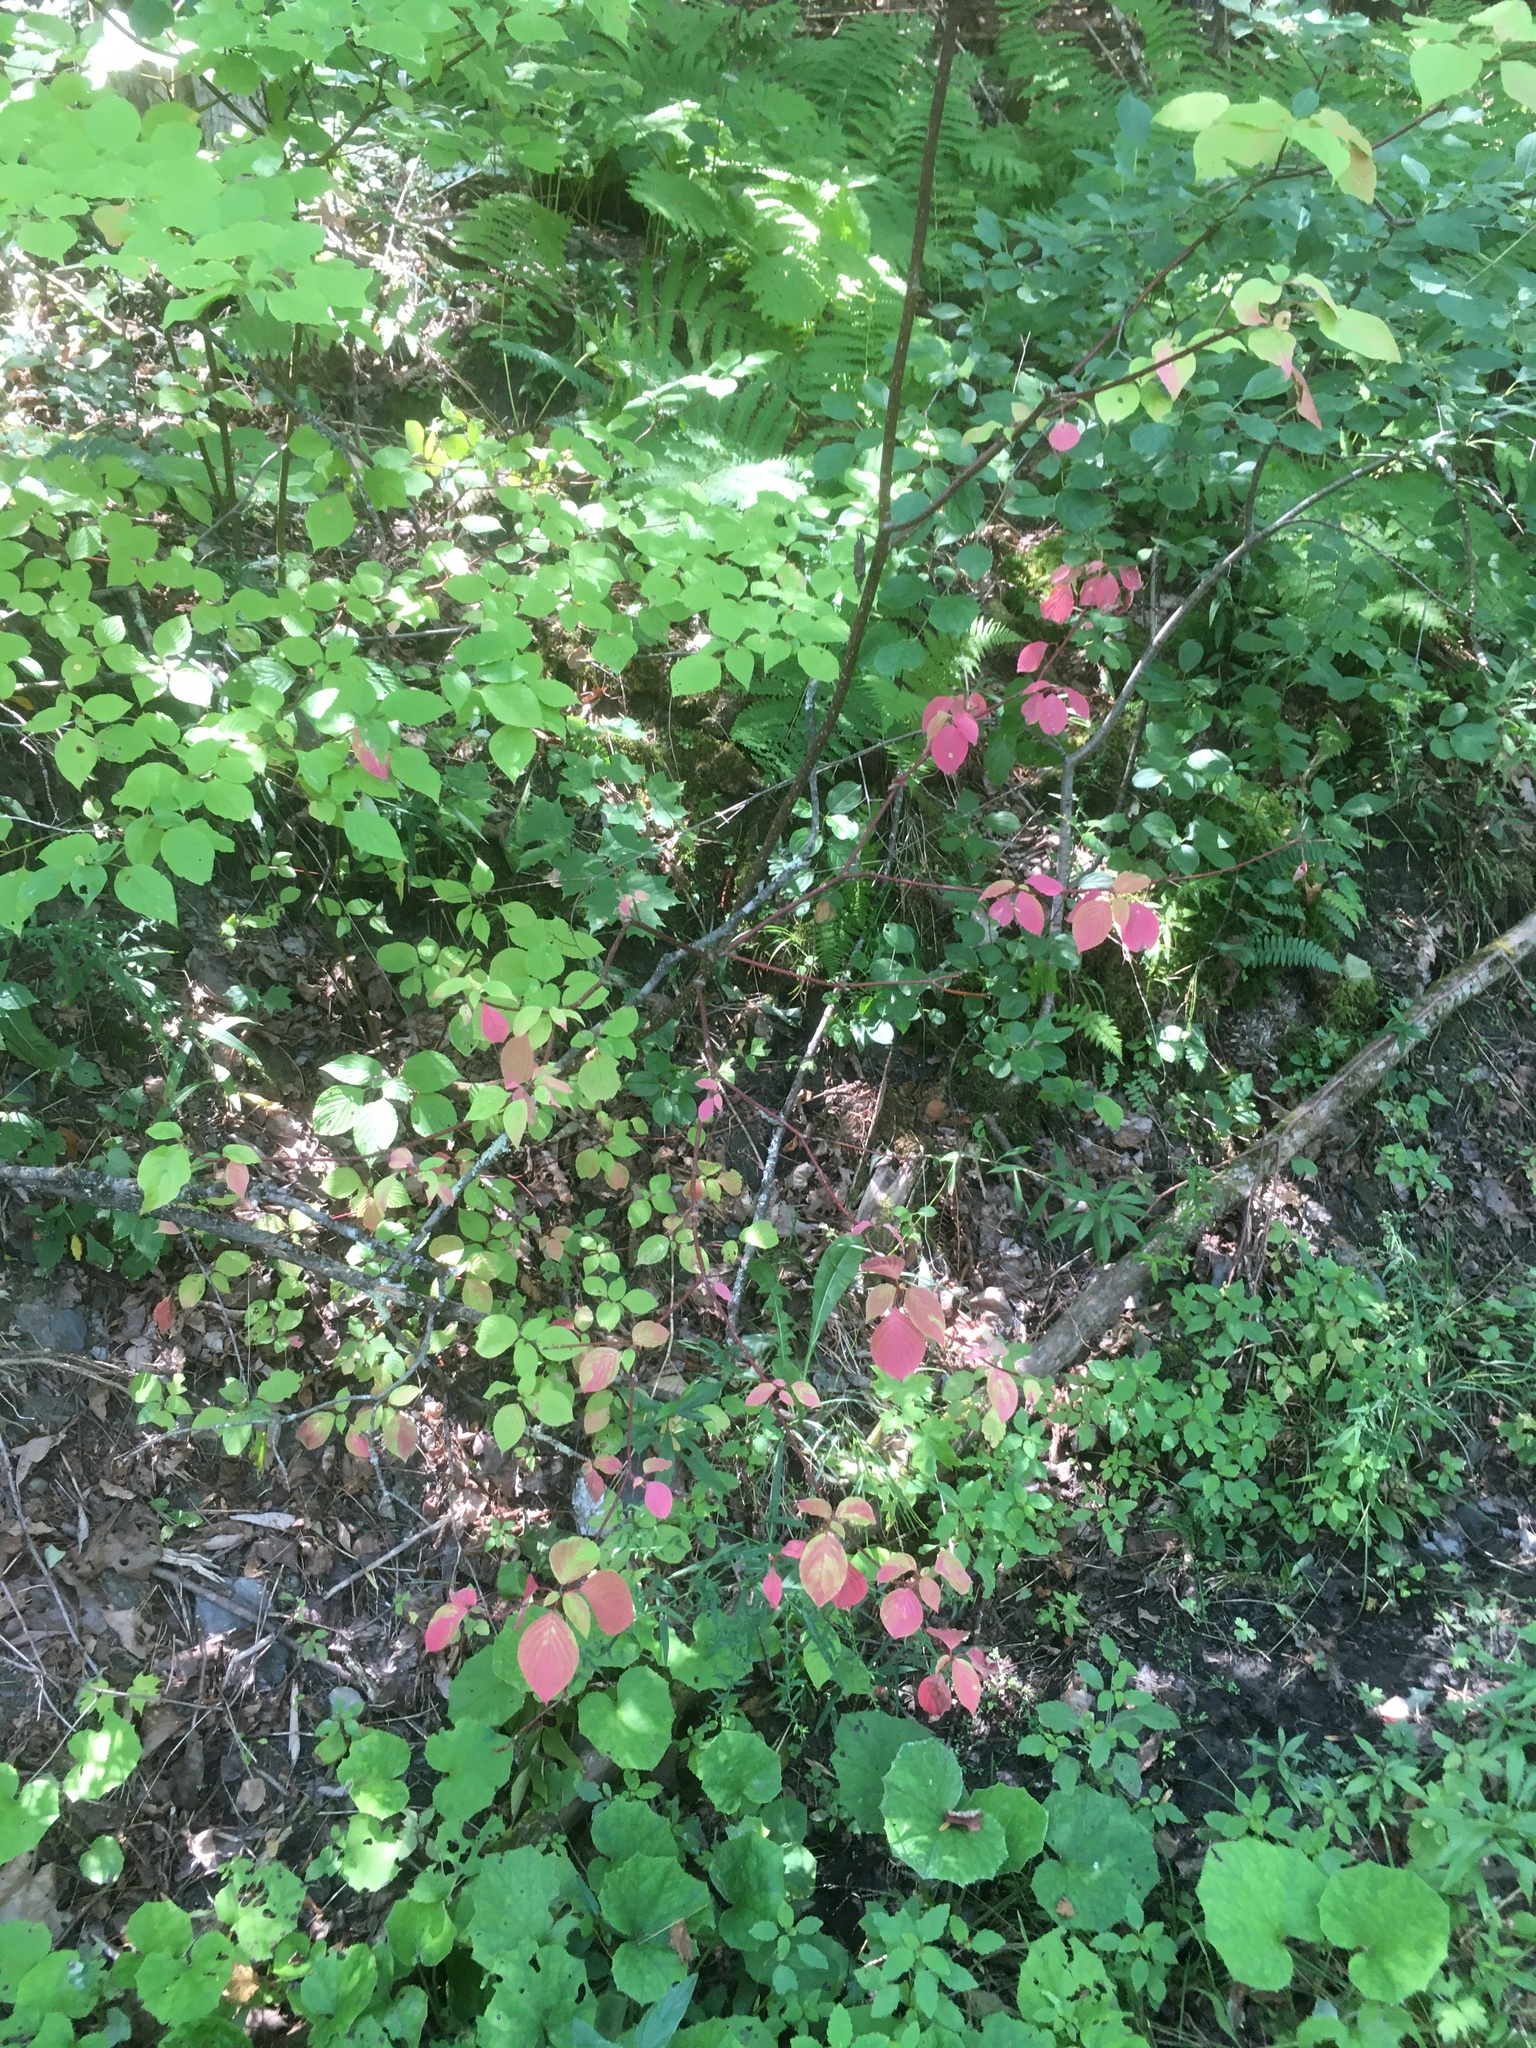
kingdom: Plantae
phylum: Tracheophyta
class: Magnoliopsida
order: Cornales
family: Cornaceae
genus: Cornus
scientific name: Cornus alternifolia
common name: Pagoda dogwood
